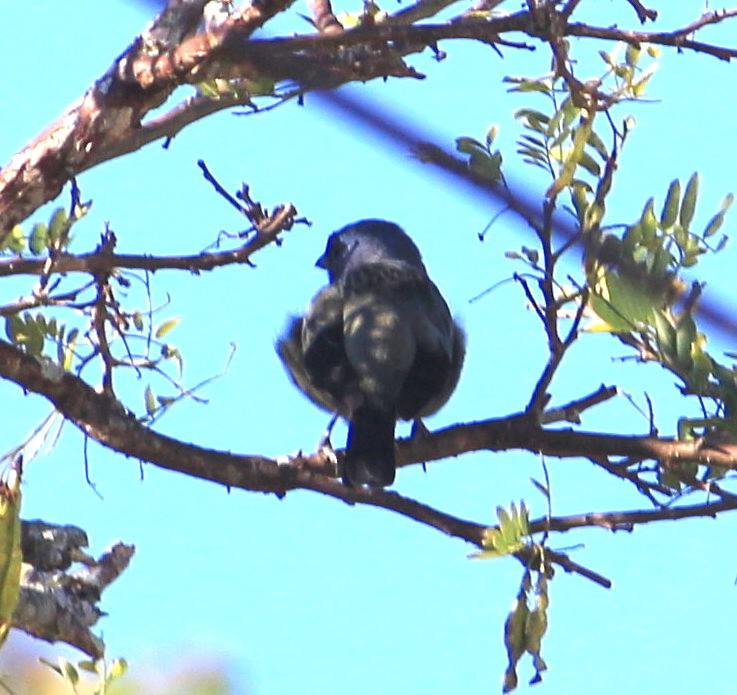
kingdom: Animalia
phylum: Chordata
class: Aves
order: Passeriformes
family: Thraupidae
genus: Thraupis
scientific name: Thraupis abbas
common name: Yellow-winged tanager
